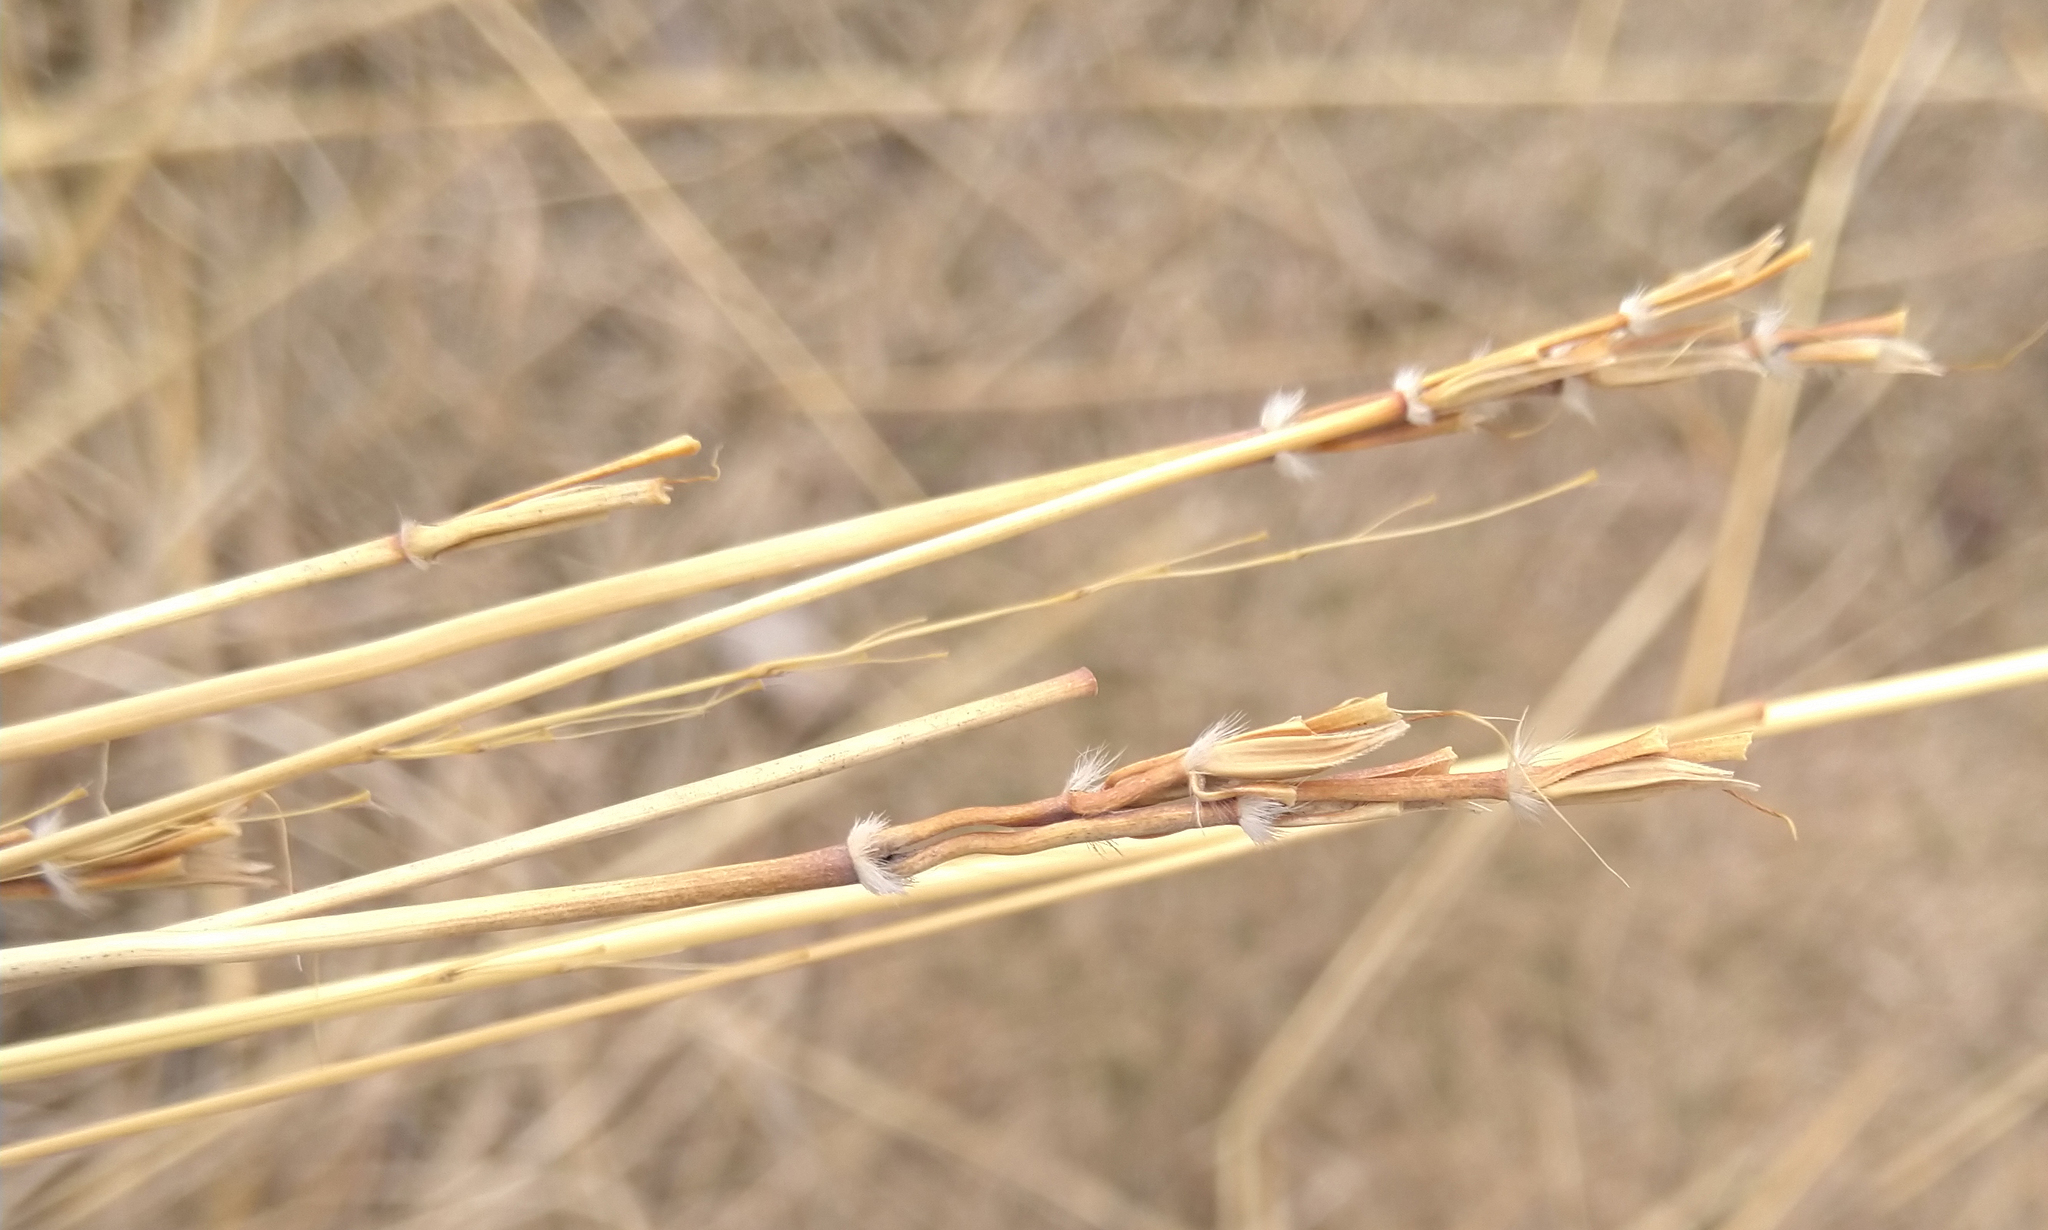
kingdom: Plantae
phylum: Tracheophyta
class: Liliopsida
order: Poales
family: Poaceae
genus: Andropogon
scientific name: Andropogon gerardi
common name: Big bluestem
